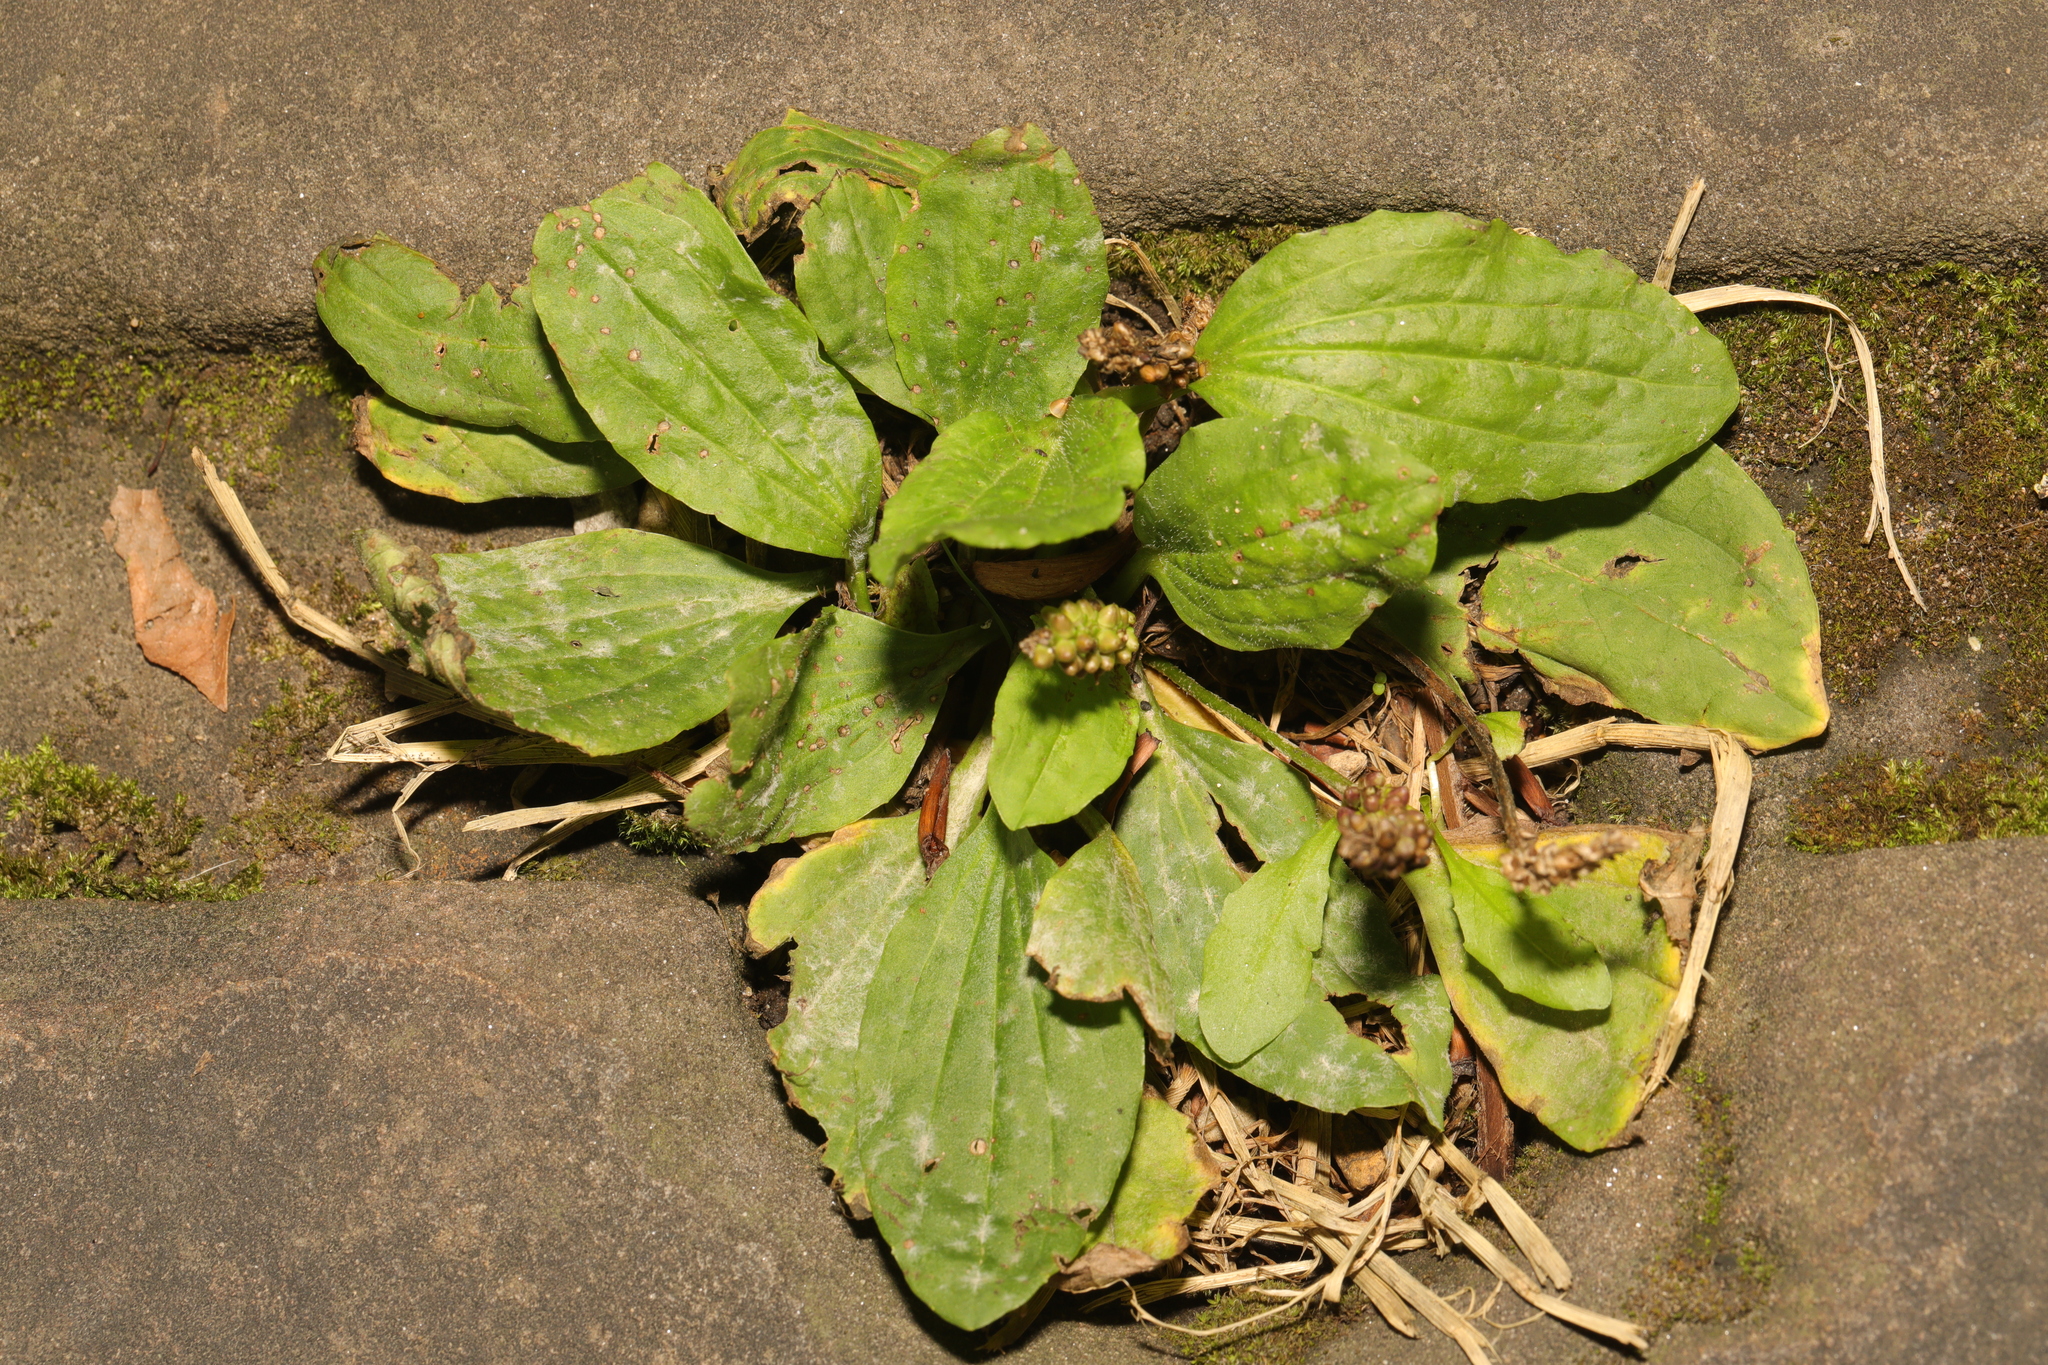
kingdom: Plantae
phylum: Tracheophyta
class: Magnoliopsida
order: Lamiales
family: Plantaginaceae
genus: Plantago
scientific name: Plantago major
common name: Common plantain
